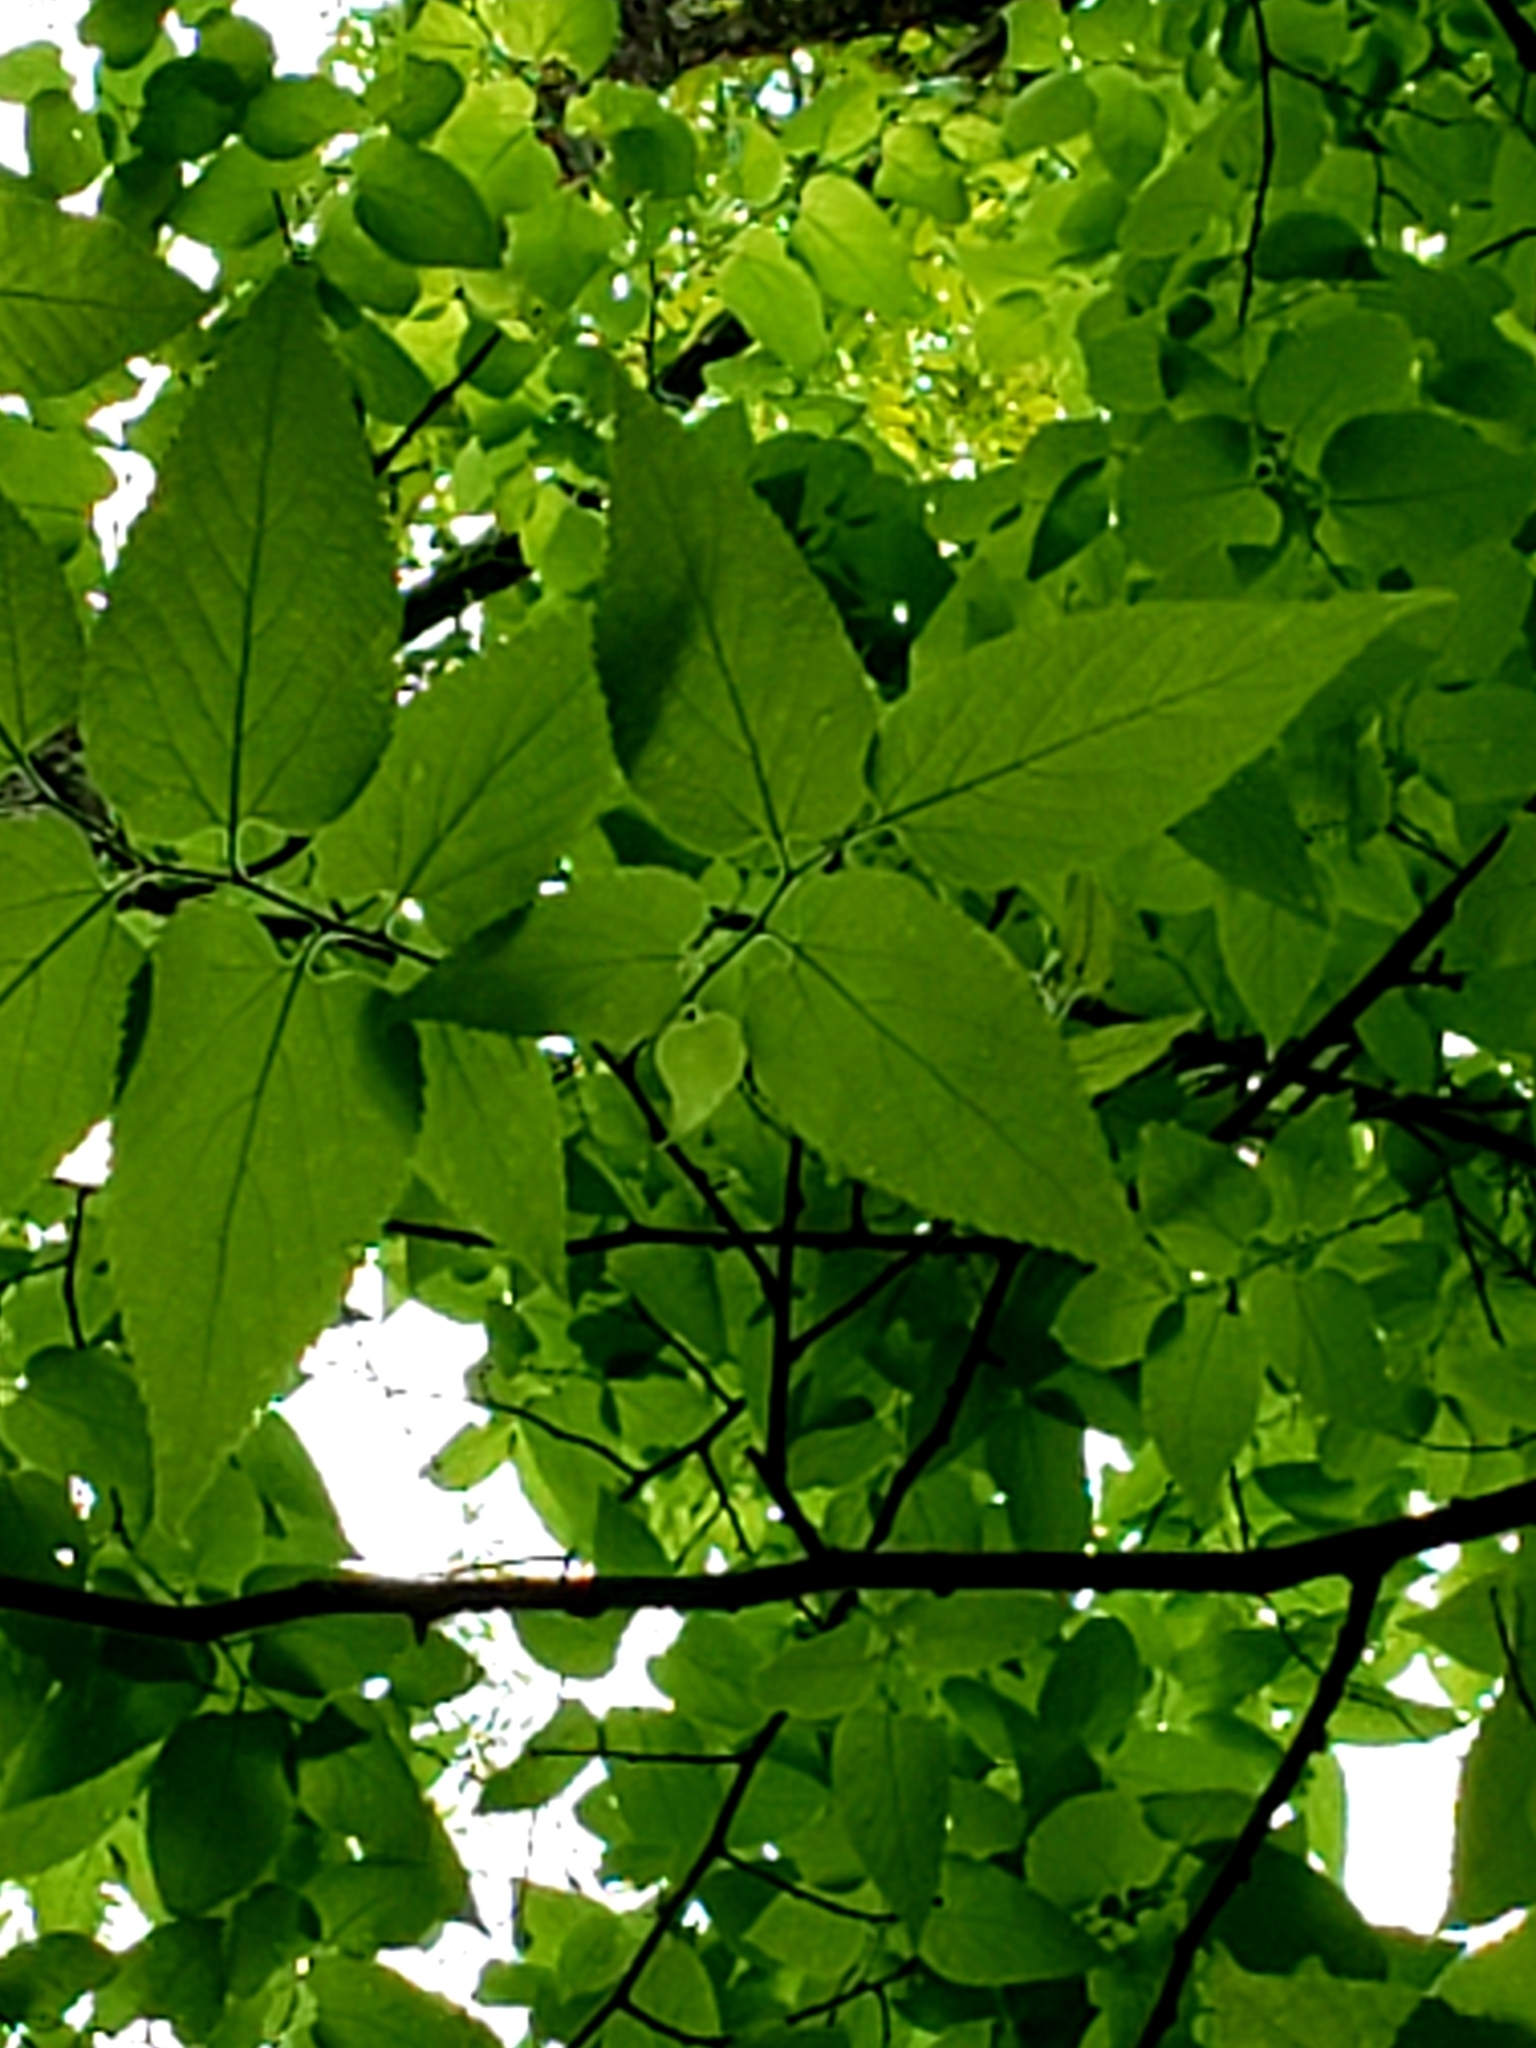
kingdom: Plantae
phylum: Tracheophyta
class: Magnoliopsida
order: Rosales
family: Cannabaceae
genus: Celtis
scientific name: Celtis occidentalis
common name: Common hackberry
